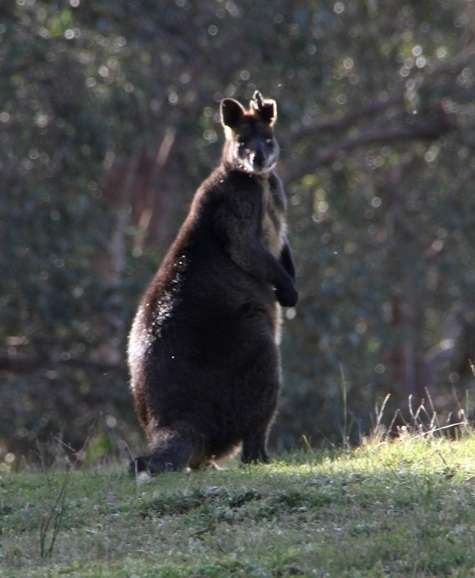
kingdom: Animalia
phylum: Chordata
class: Mammalia
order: Diprotodontia
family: Macropodidae
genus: Wallabia
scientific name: Wallabia bicolor
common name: Swamp wallaby
